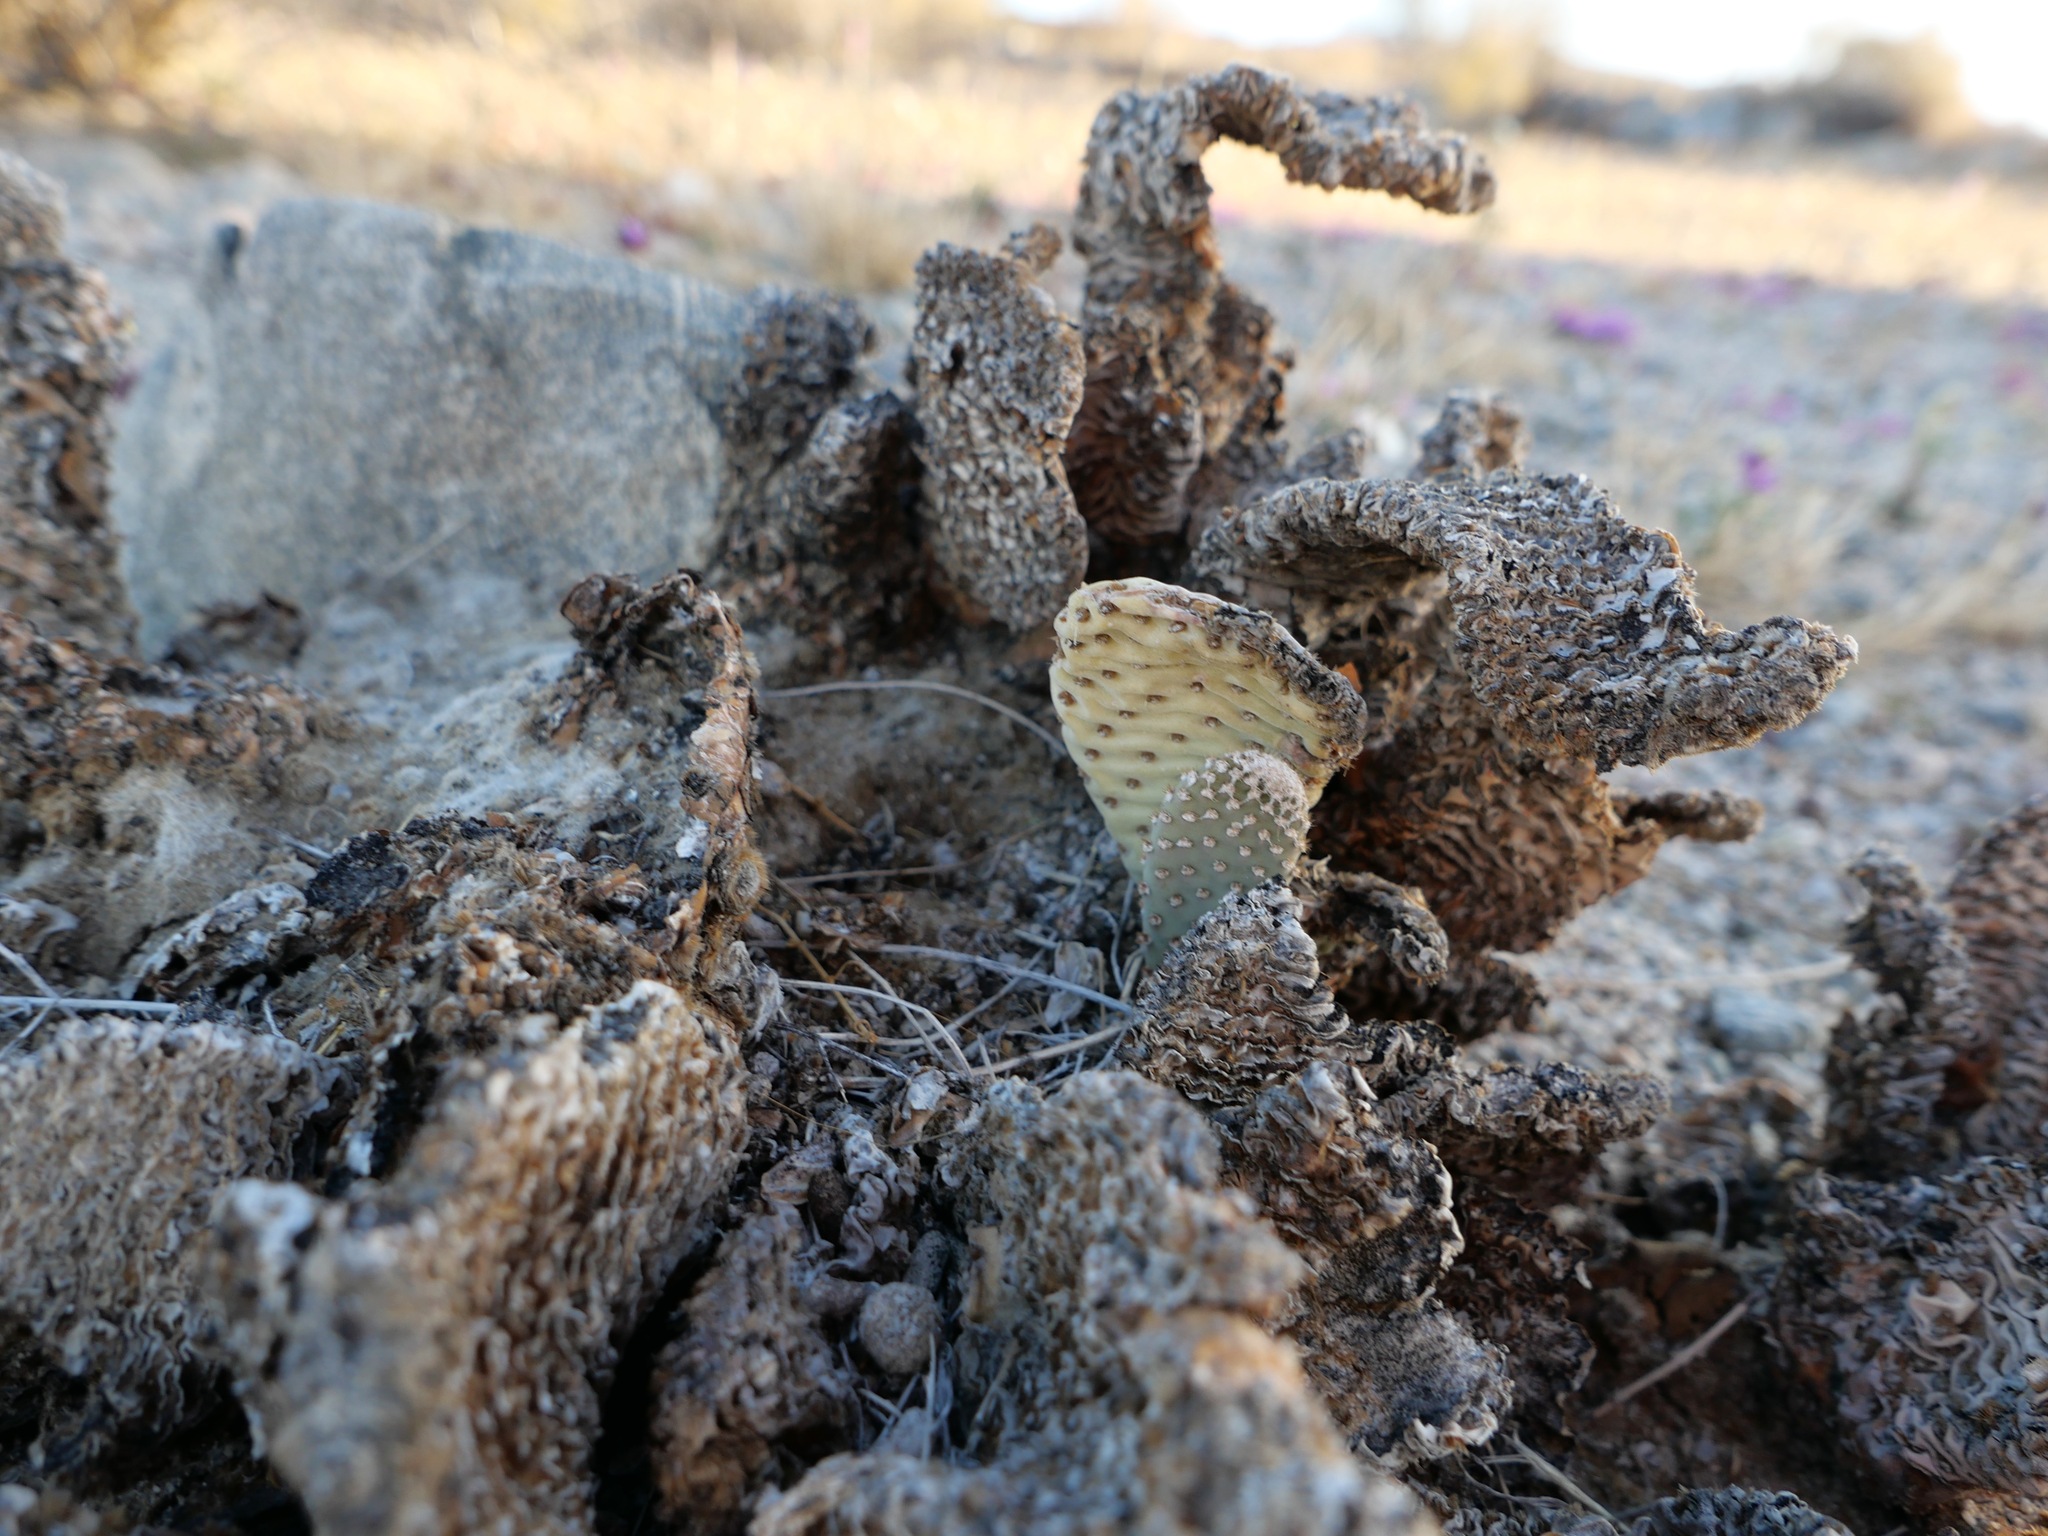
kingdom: Plantae
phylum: Tracheophyta
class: Magnoliopsida
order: Caryophyllales
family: Cactaceae
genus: Opuntia
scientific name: Opuntia basilaris
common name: Beavertail prickly-pear
